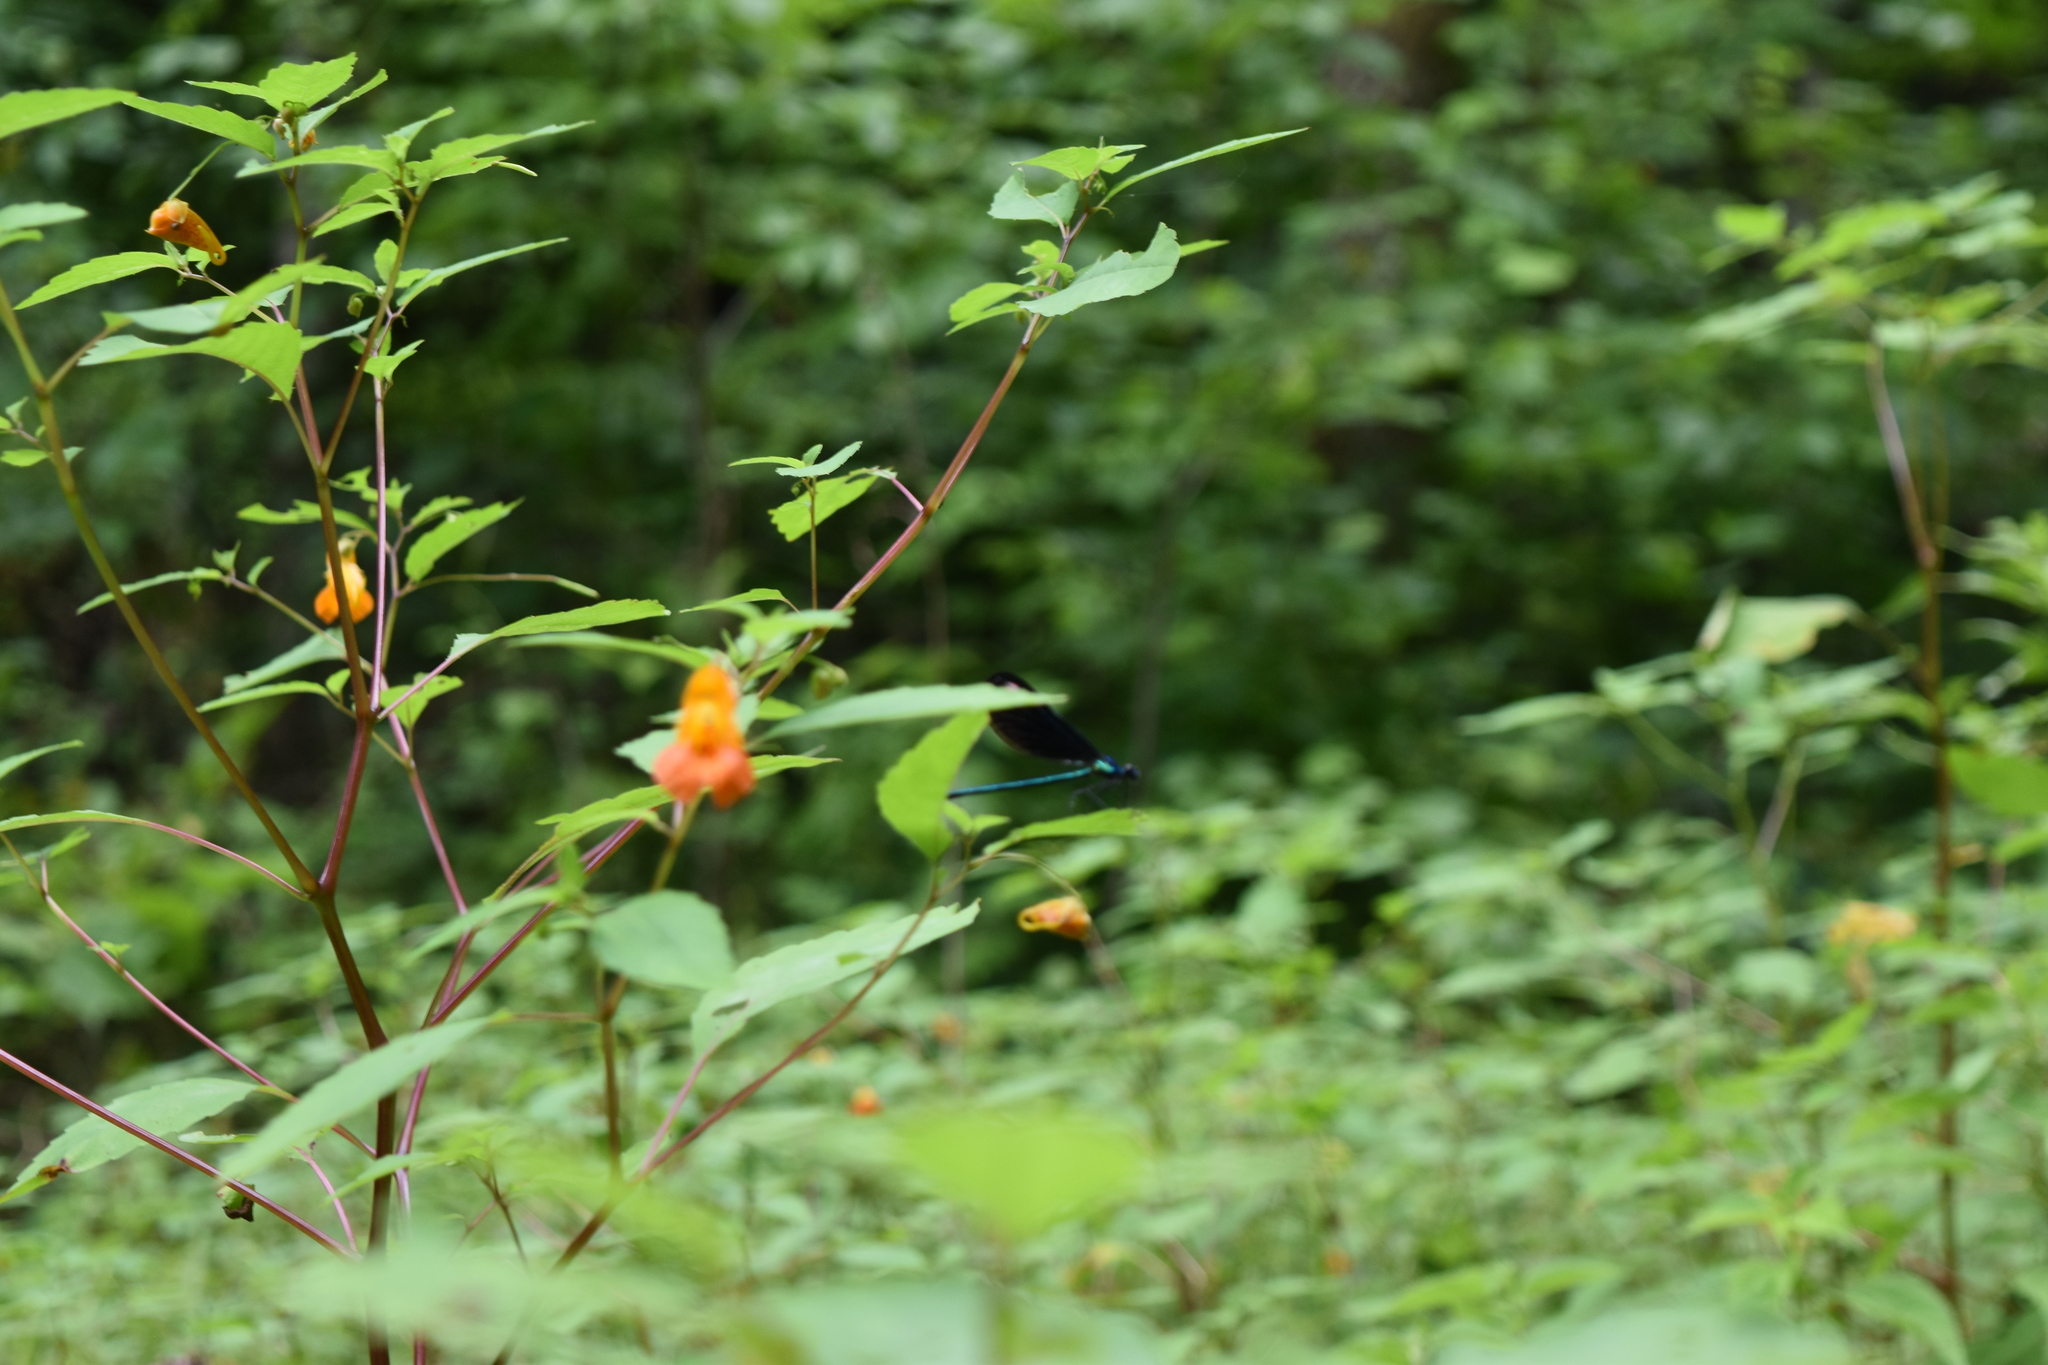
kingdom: Plantae
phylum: Tracheophyta
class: Magnoliopsida
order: Ericales
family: Balsaminaceae
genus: Impatiens
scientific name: Impatiens capensis
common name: Orange balsam
